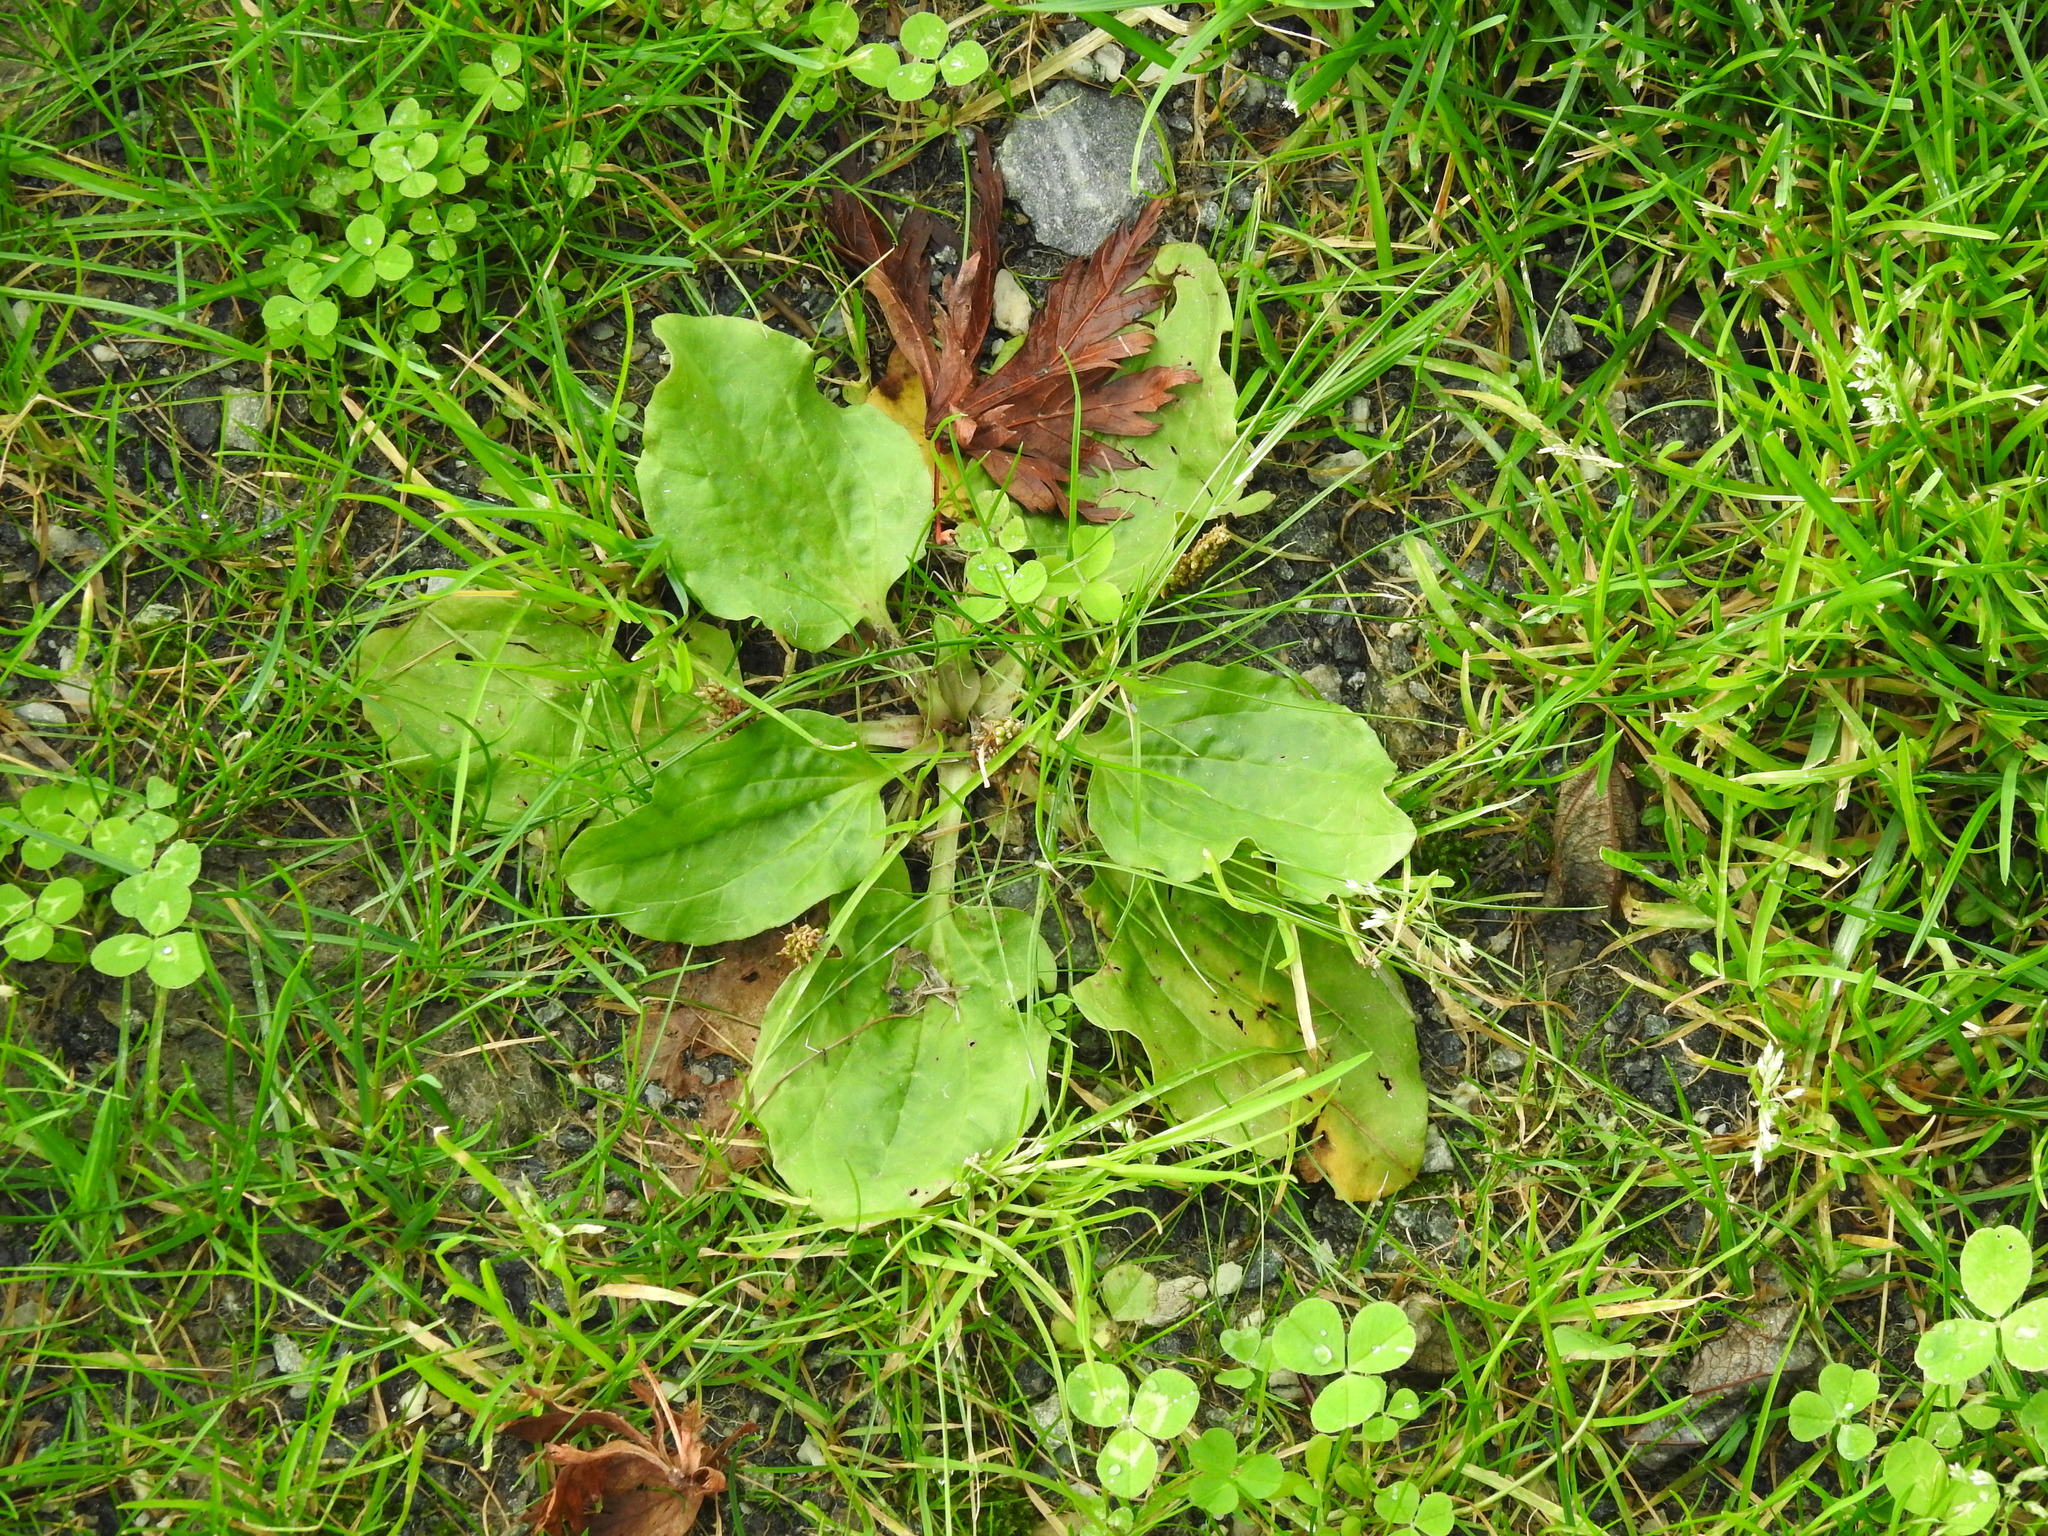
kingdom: Plantae
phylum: Tracheophyta
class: Magnoliopsida
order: Lamiales
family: Plantaginaceae
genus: Plantago
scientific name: Plantago major
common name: Common plantain
